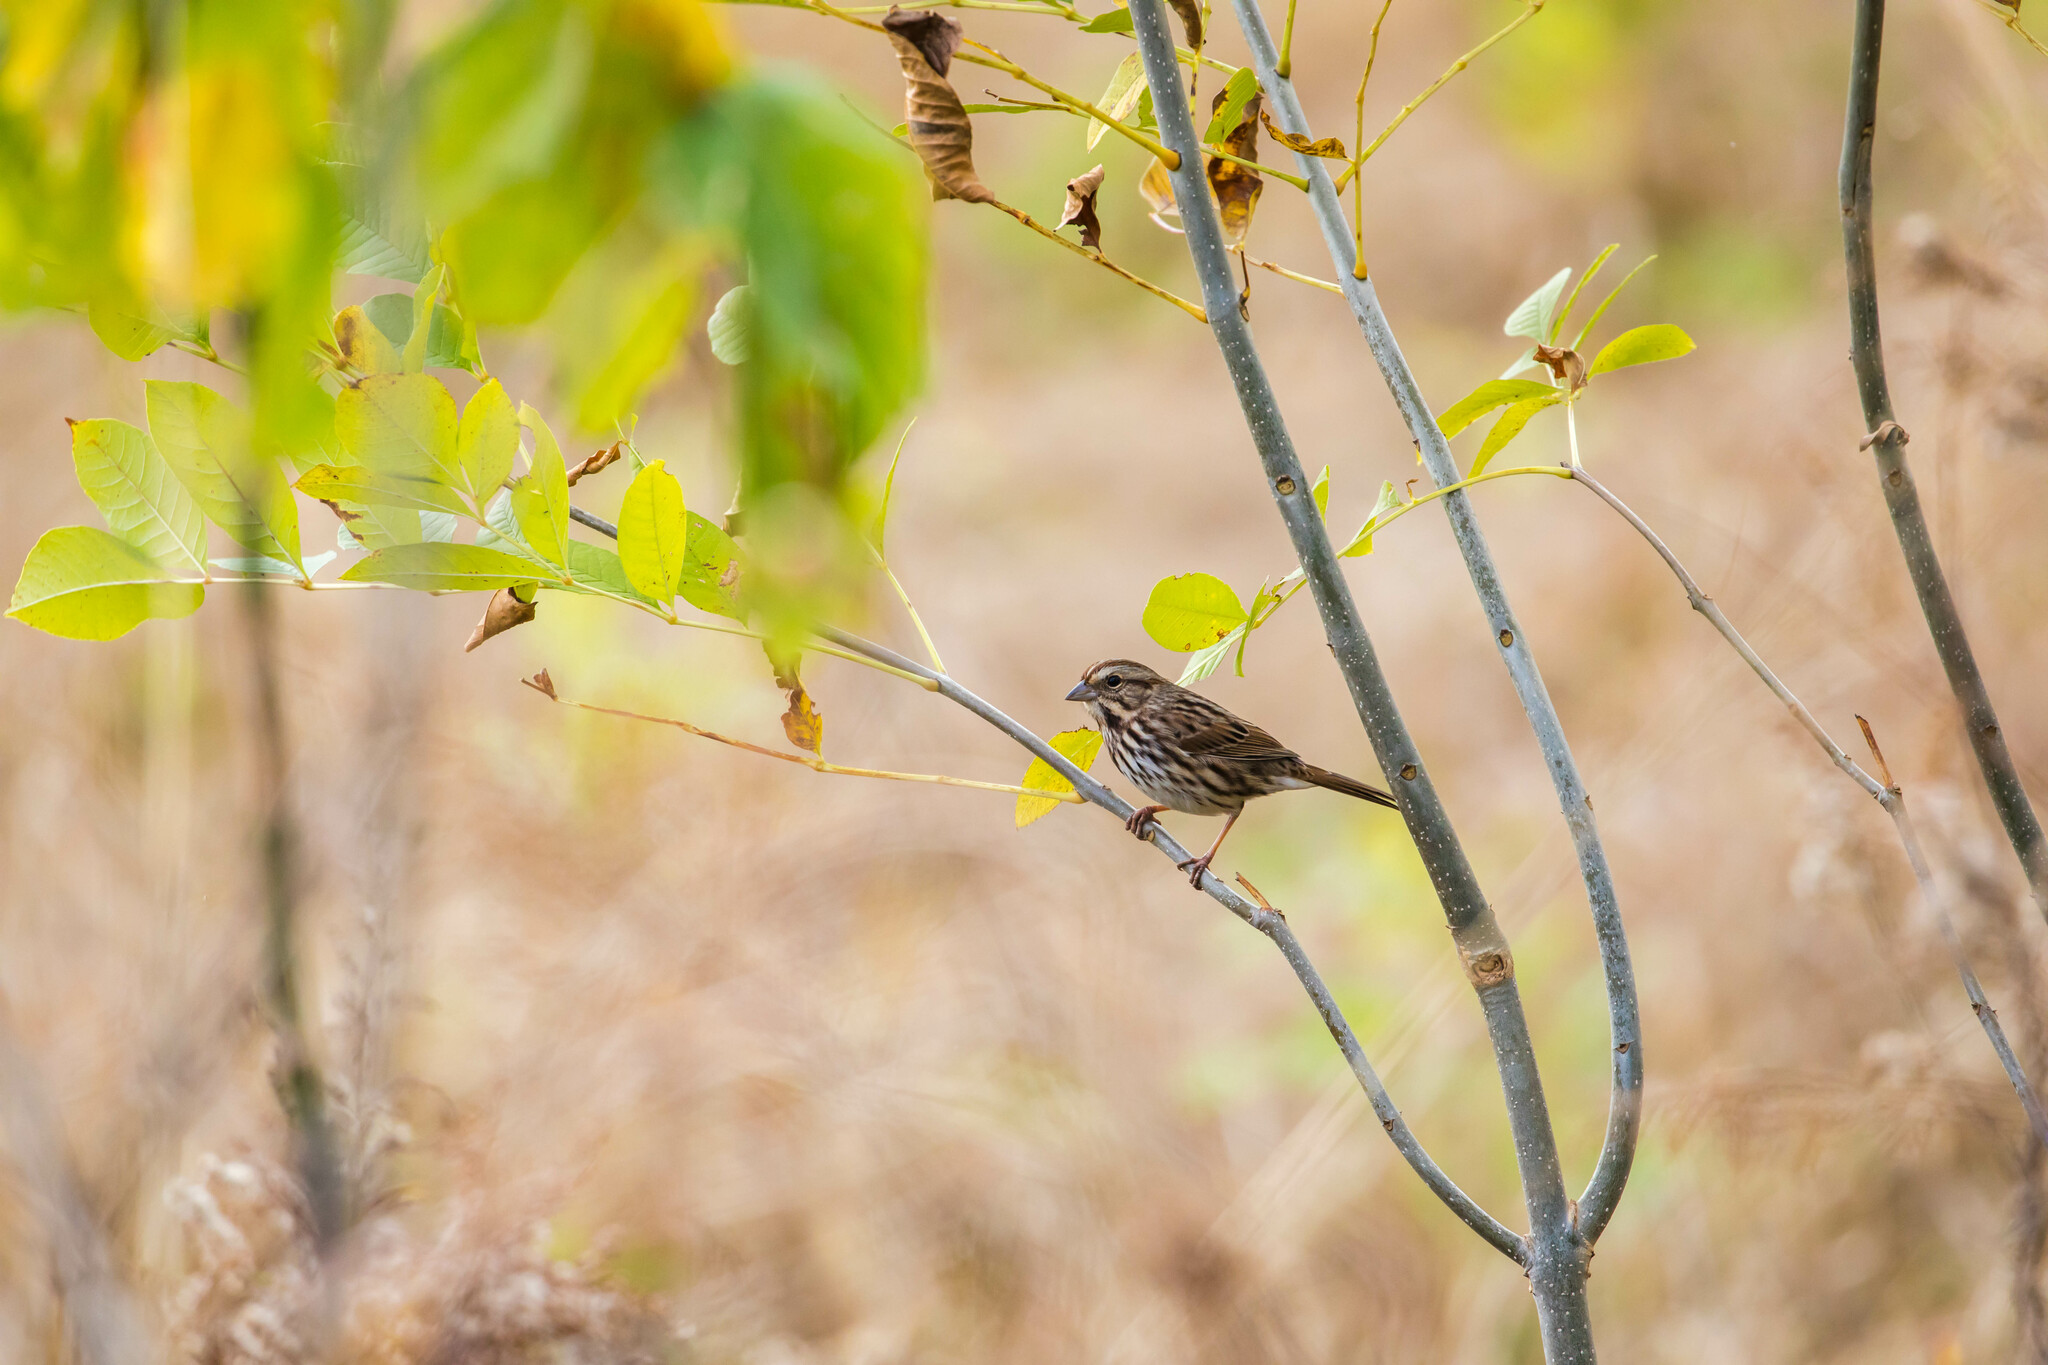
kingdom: Animalia
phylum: Chordata
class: Aves
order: Passeriformes
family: Passerellidae
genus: Melospiza
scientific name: Melospiza melodia
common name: Song sparrow
